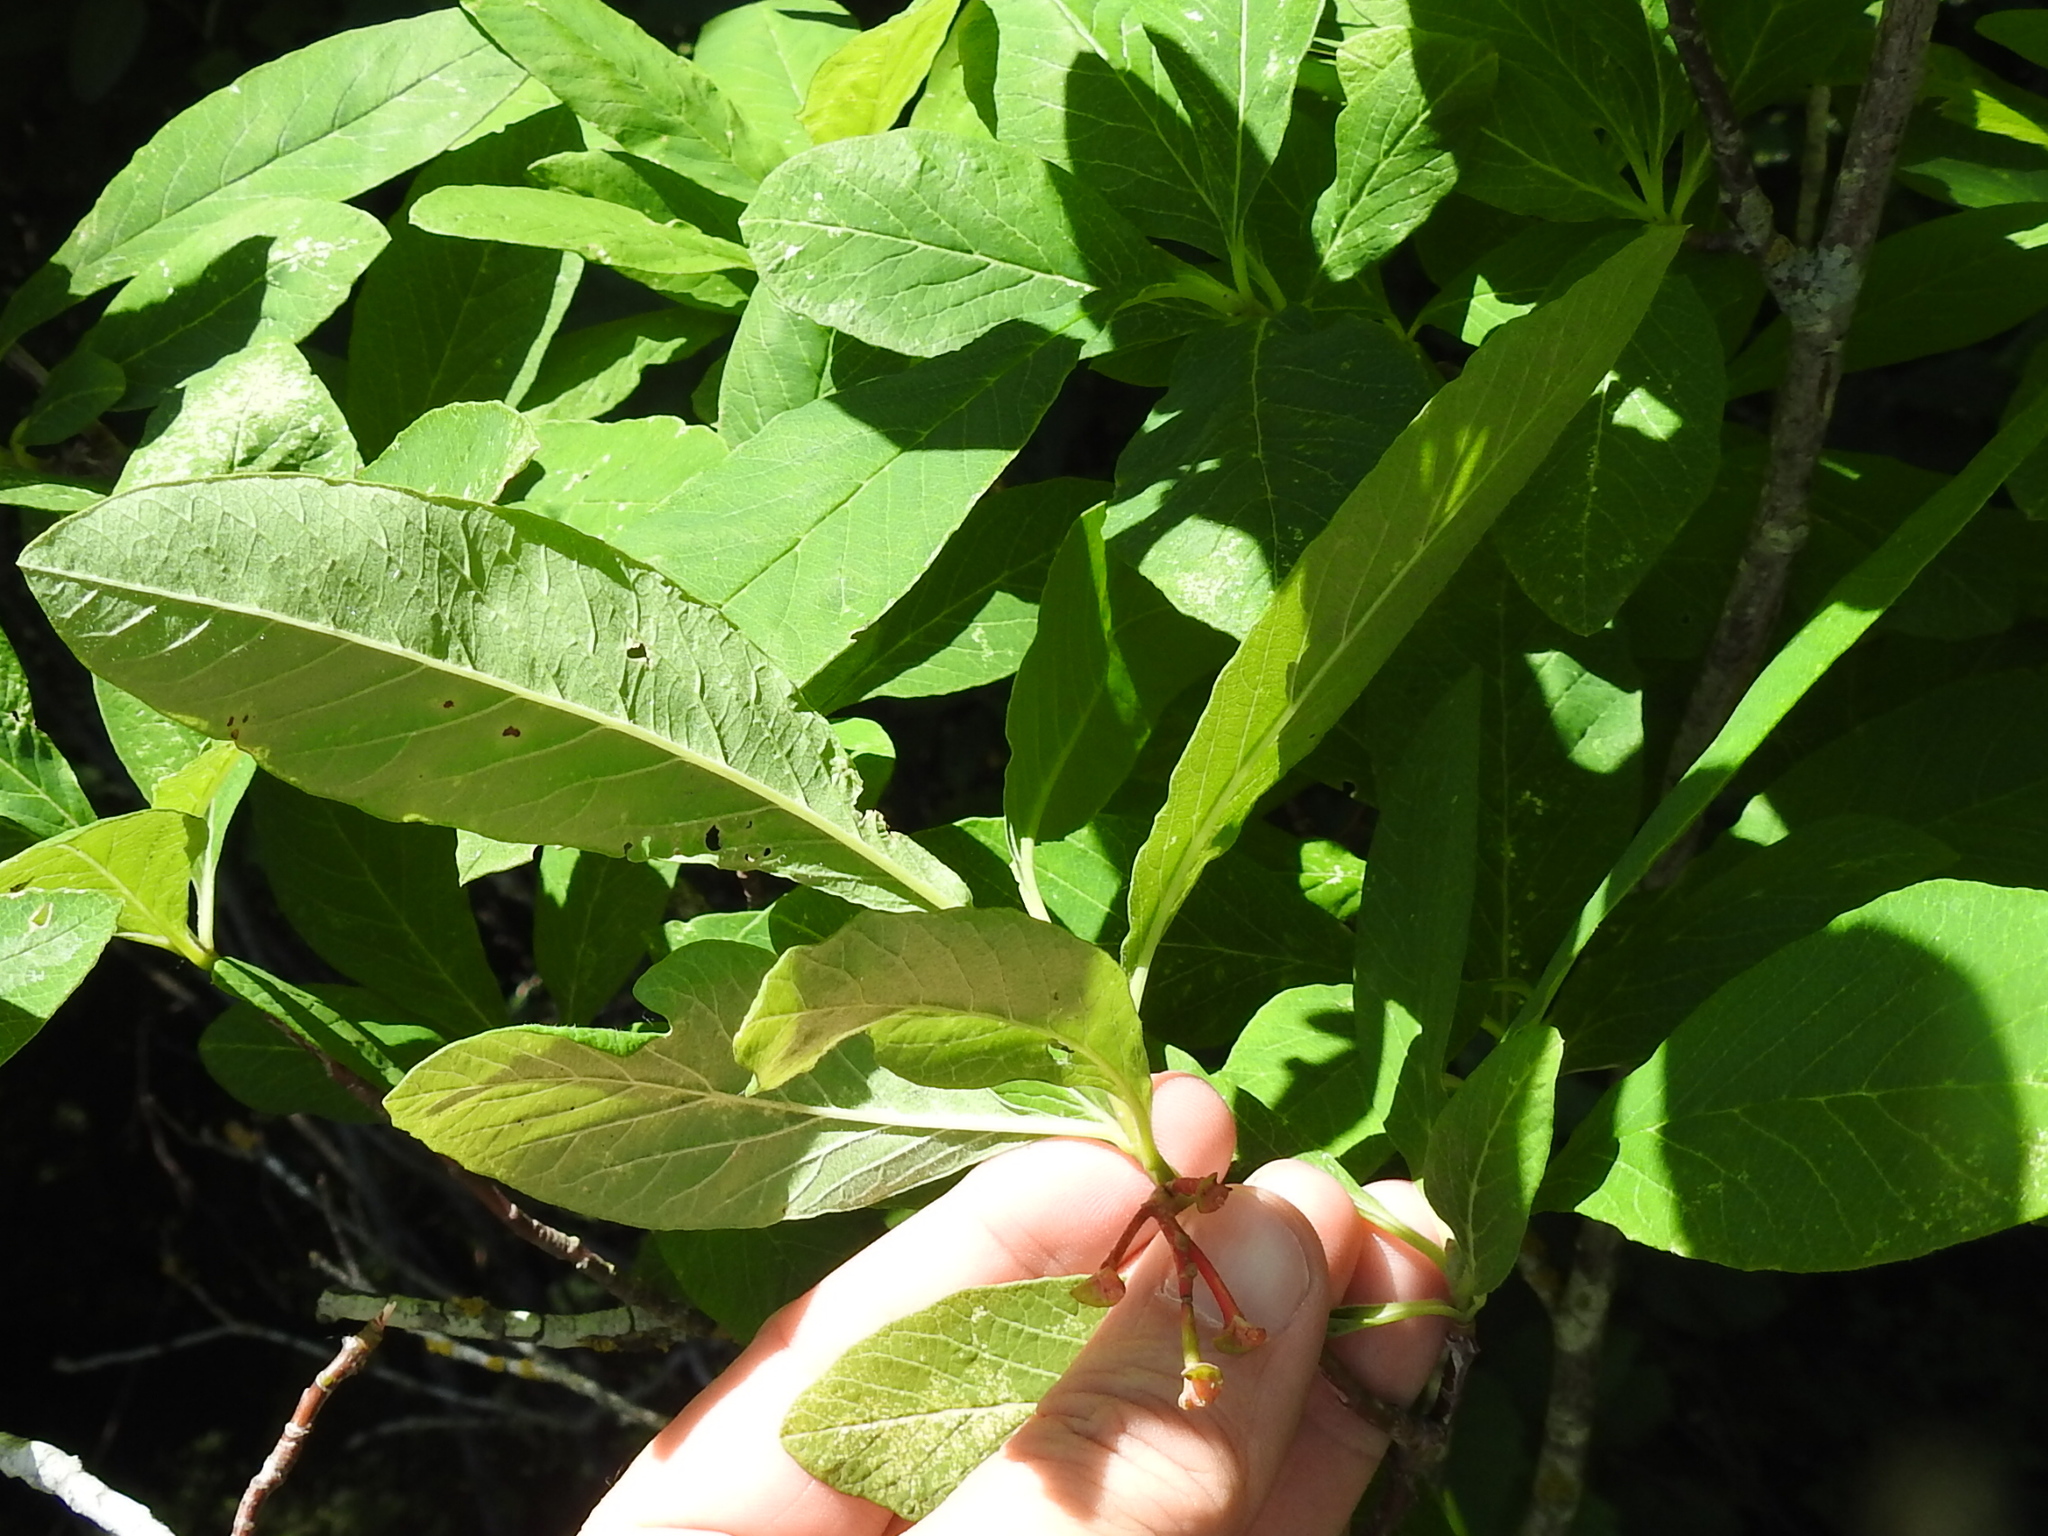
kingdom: Plantae
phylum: Tracheophyta
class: Magnoliopsida
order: Rosales
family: Rosaceae
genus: Oemleria
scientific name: Oemleria cerasiformis
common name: Osoberry
